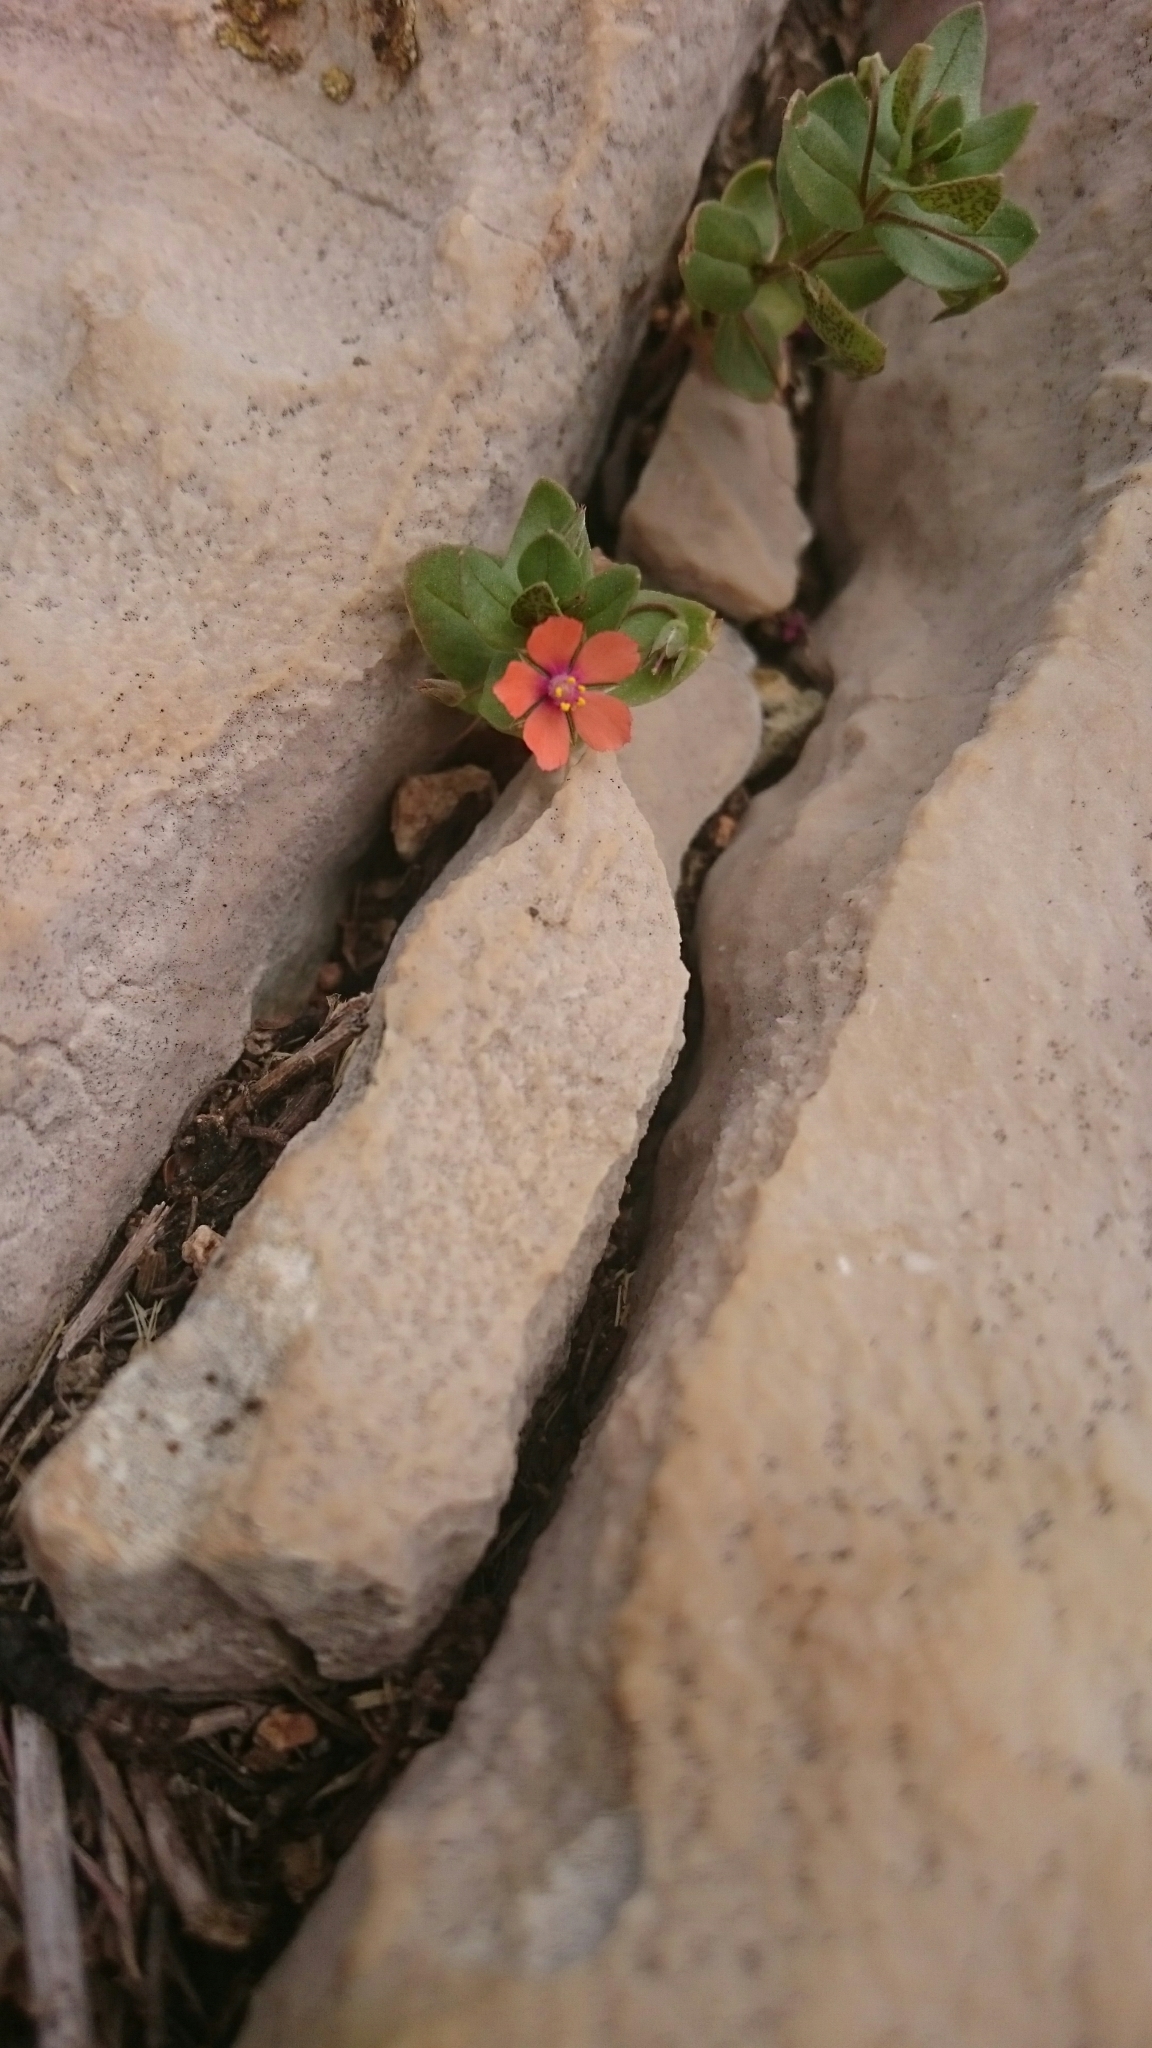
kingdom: Plantae
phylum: Tracheophyta
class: Magnoliopsida
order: Ericales
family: Primulaceae
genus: Lysimachia
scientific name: Lysimachia arvensis
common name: Scarlet pimpernel
